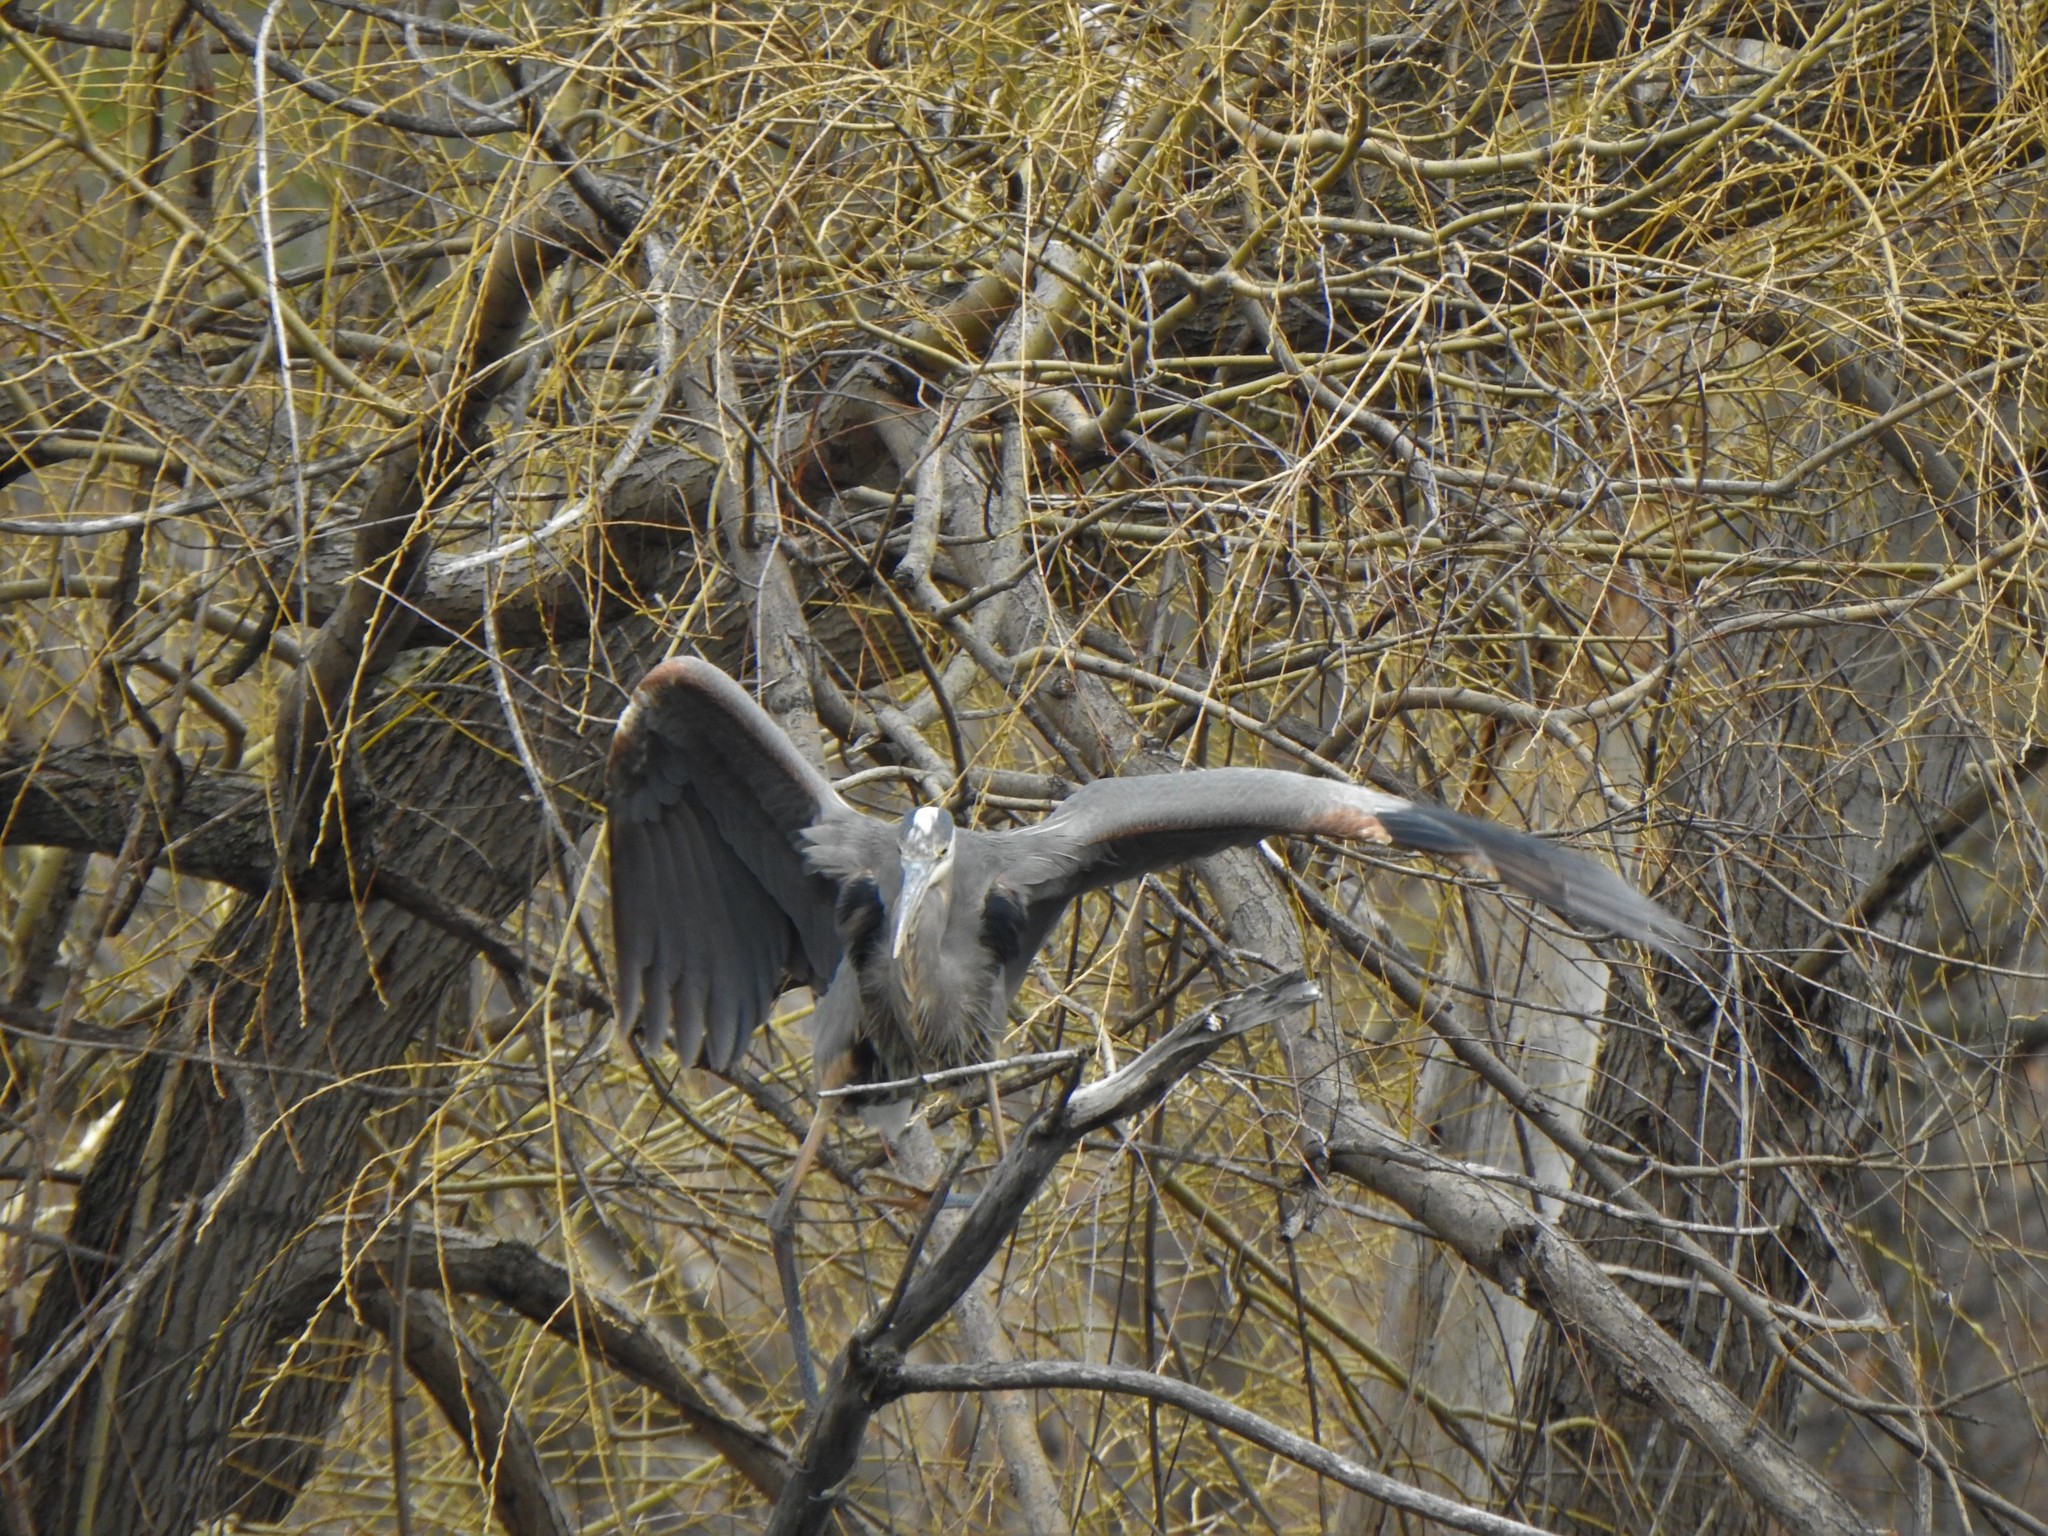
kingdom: Animalia
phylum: Chordata
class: Aves
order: Pelecaniformes
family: Ardeidae
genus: Ardea
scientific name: Ardea herodias
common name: Great blue heron
